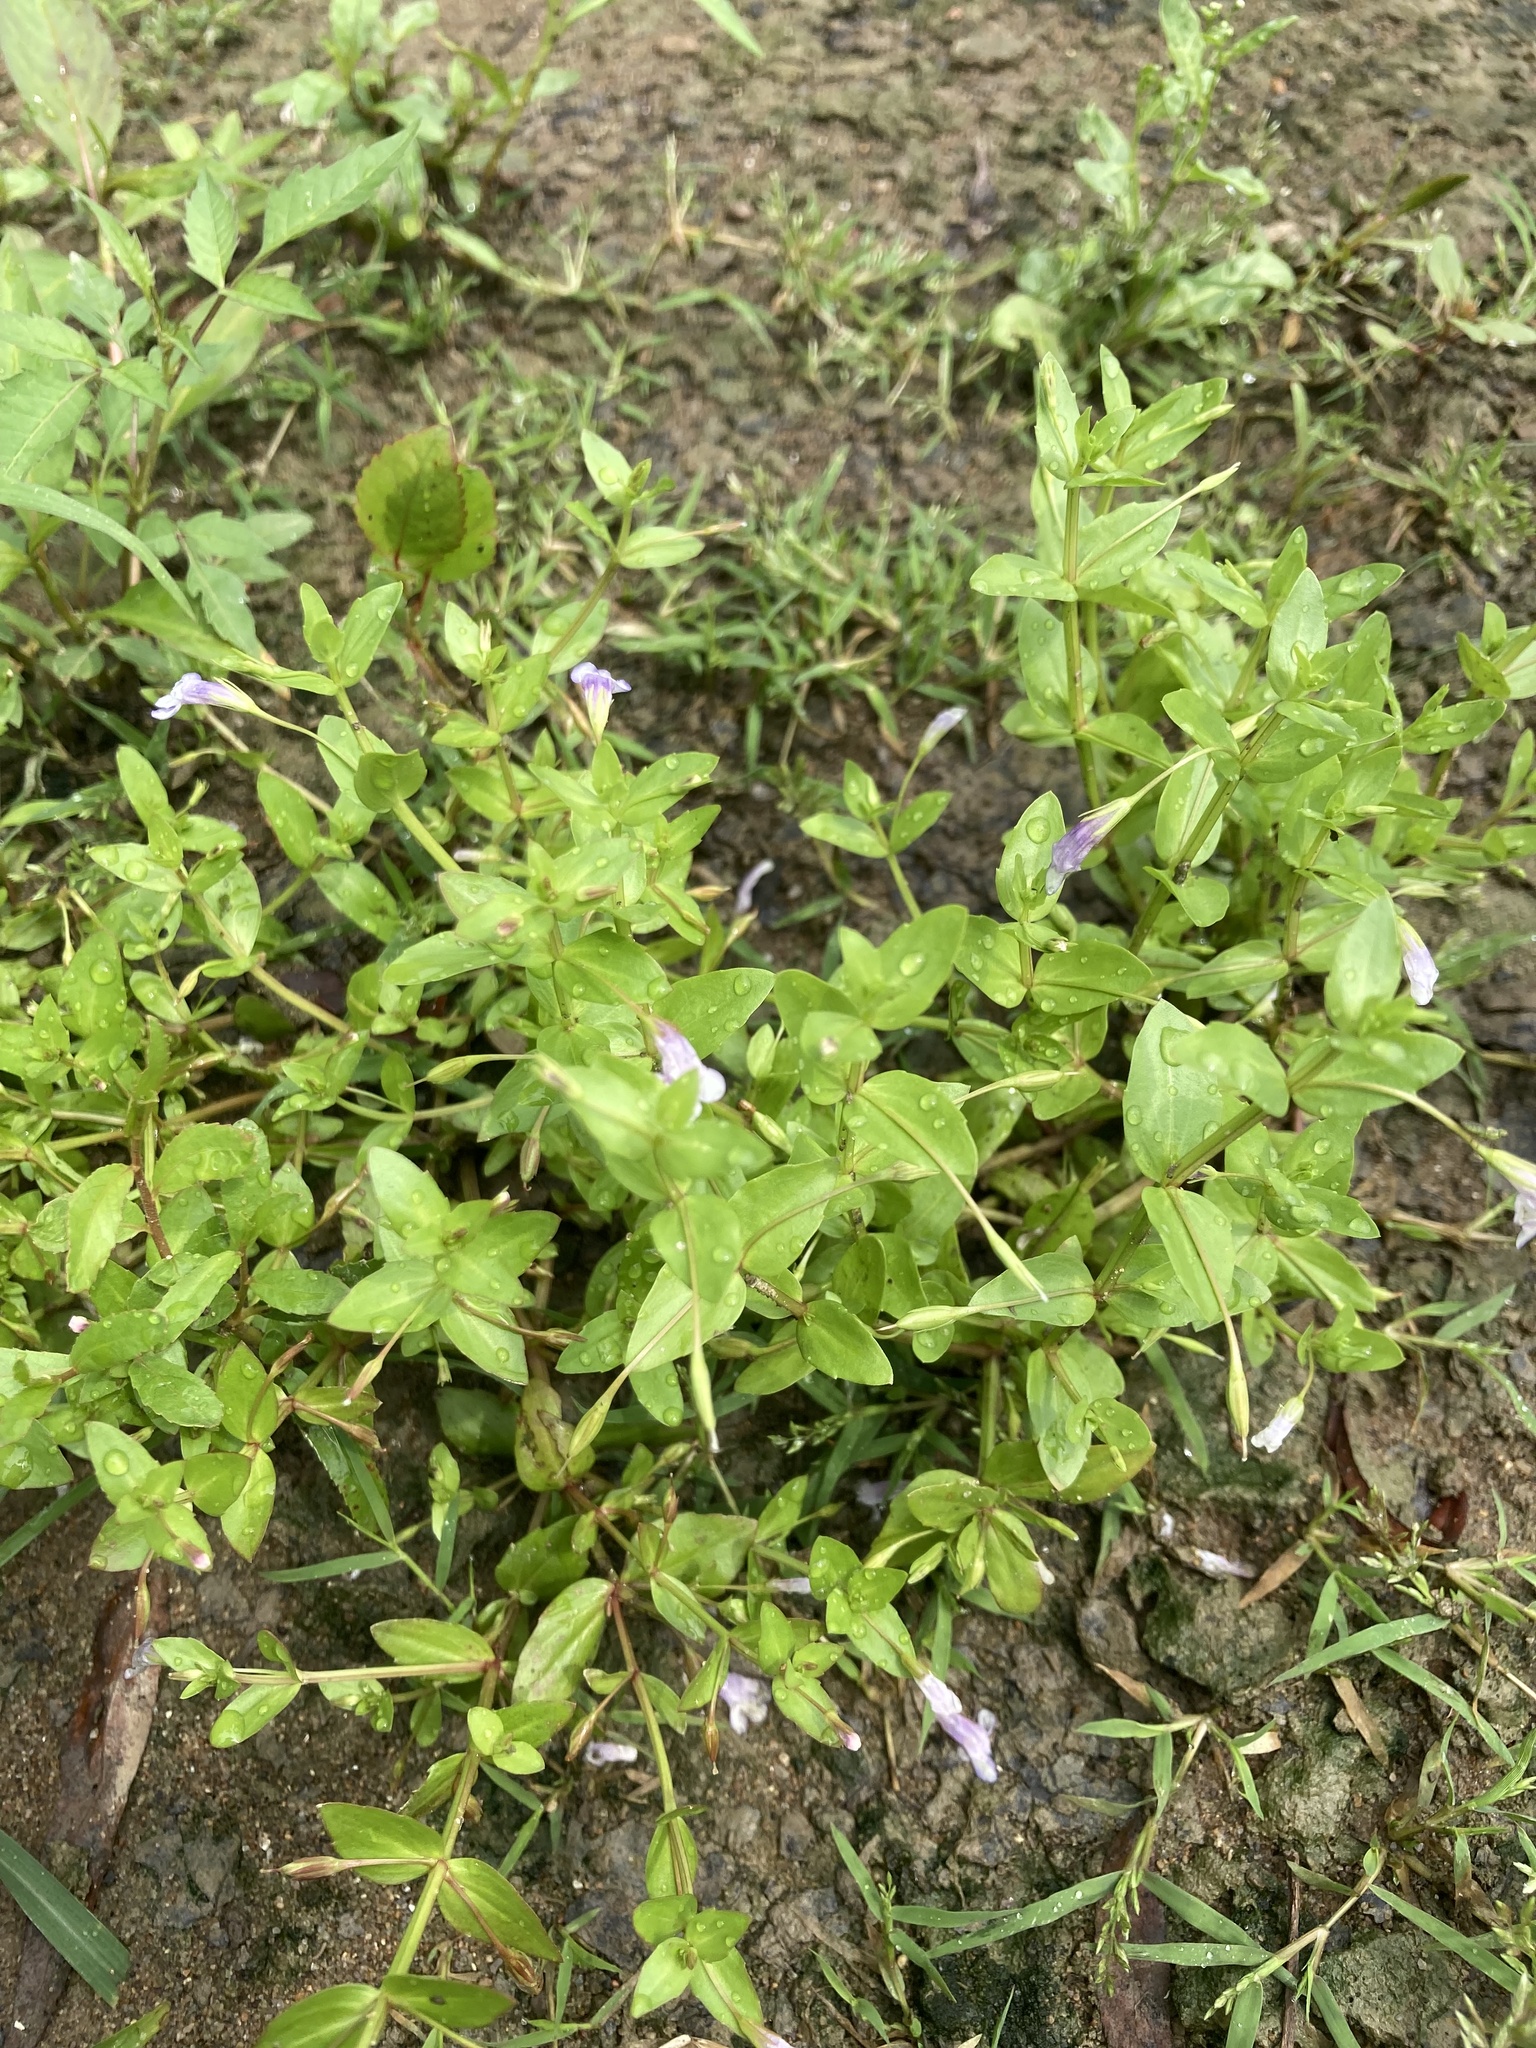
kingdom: Plantae
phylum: Tracheophyta
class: Magnoliopsida
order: Lamiales
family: Linderniaceae
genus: Lindernia
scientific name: Lindernia dubia
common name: Annual false pimpernel
